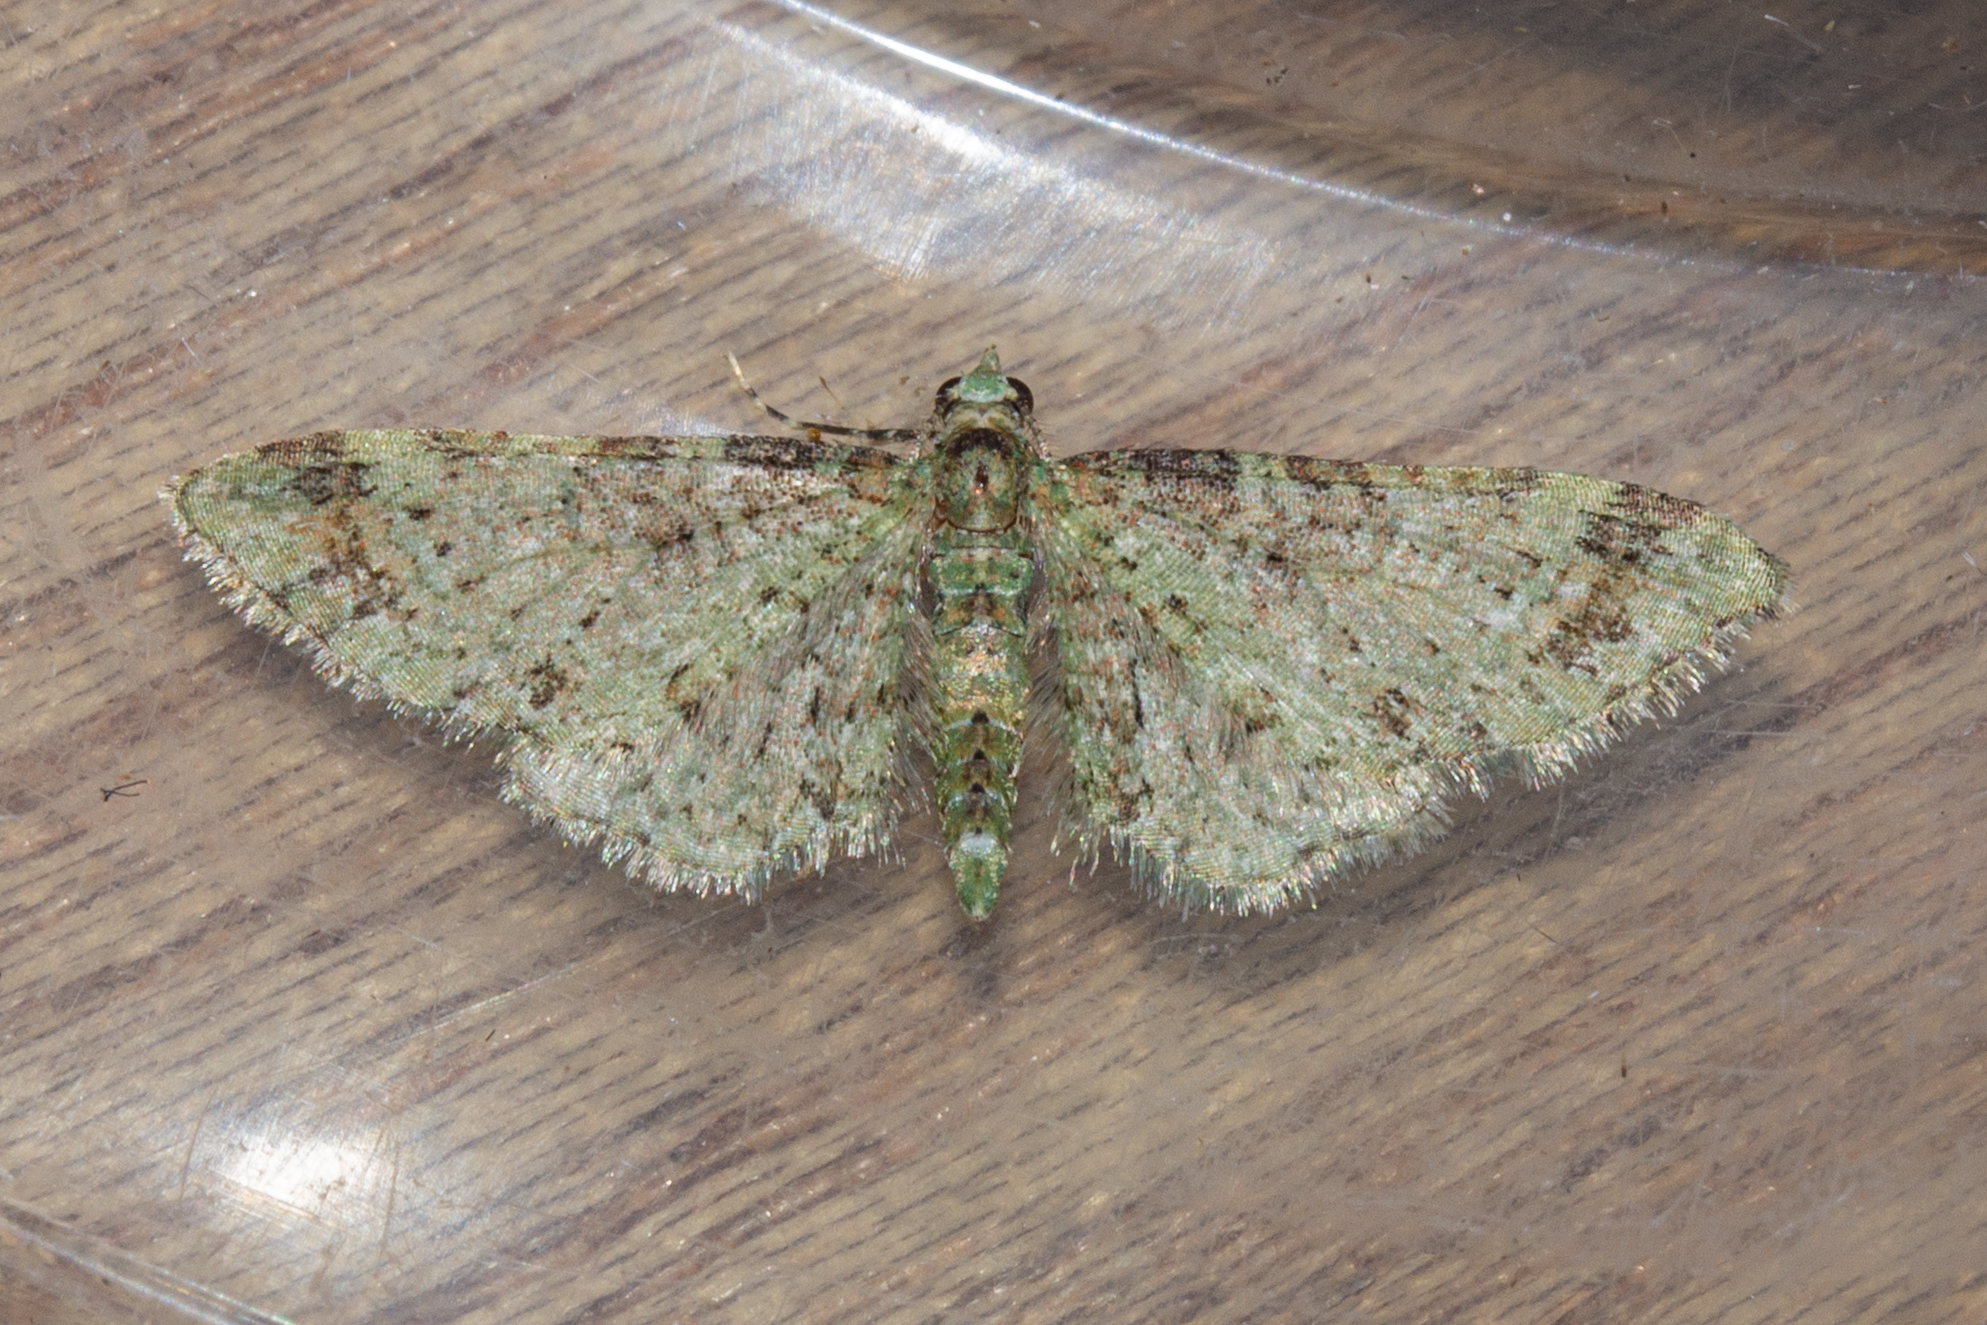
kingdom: Animalia
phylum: Arthropoda
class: Insecta
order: Lepidoptera
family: Geometridae
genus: Pasiphila
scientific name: Pasiphila plinthina
